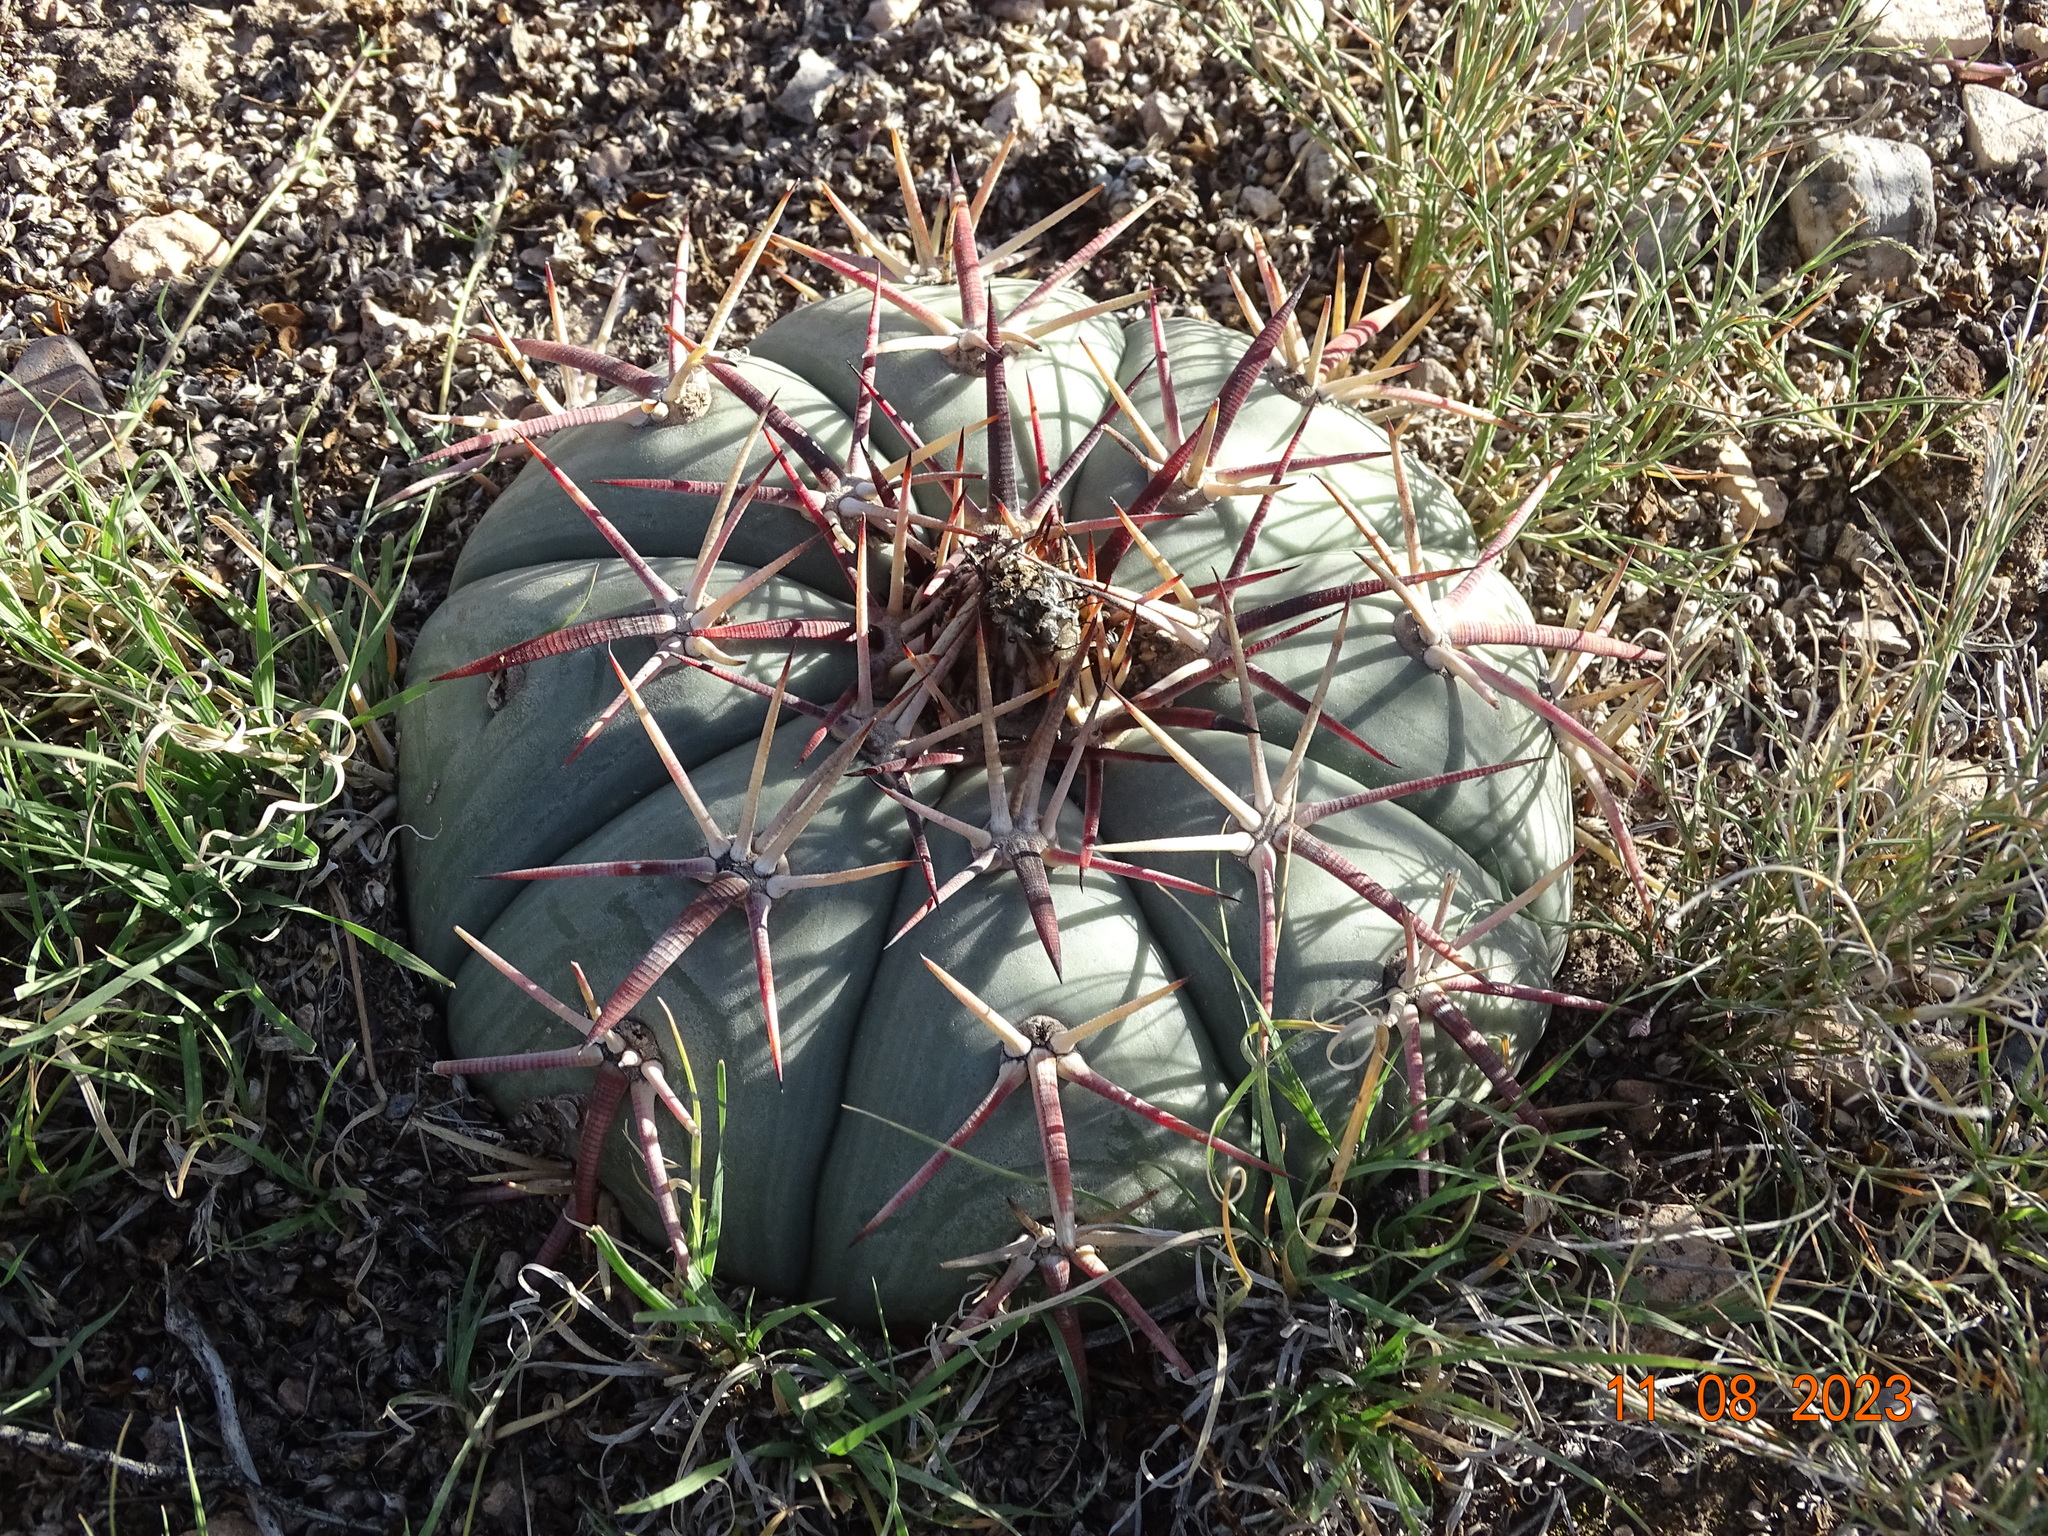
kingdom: Plantae
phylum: Tracheophyta
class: Magnoliopsida
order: Caryophyllales
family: Cactaceae
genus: Echinocactus
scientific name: Echinocactus horizonthalonius
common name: Devilshead
